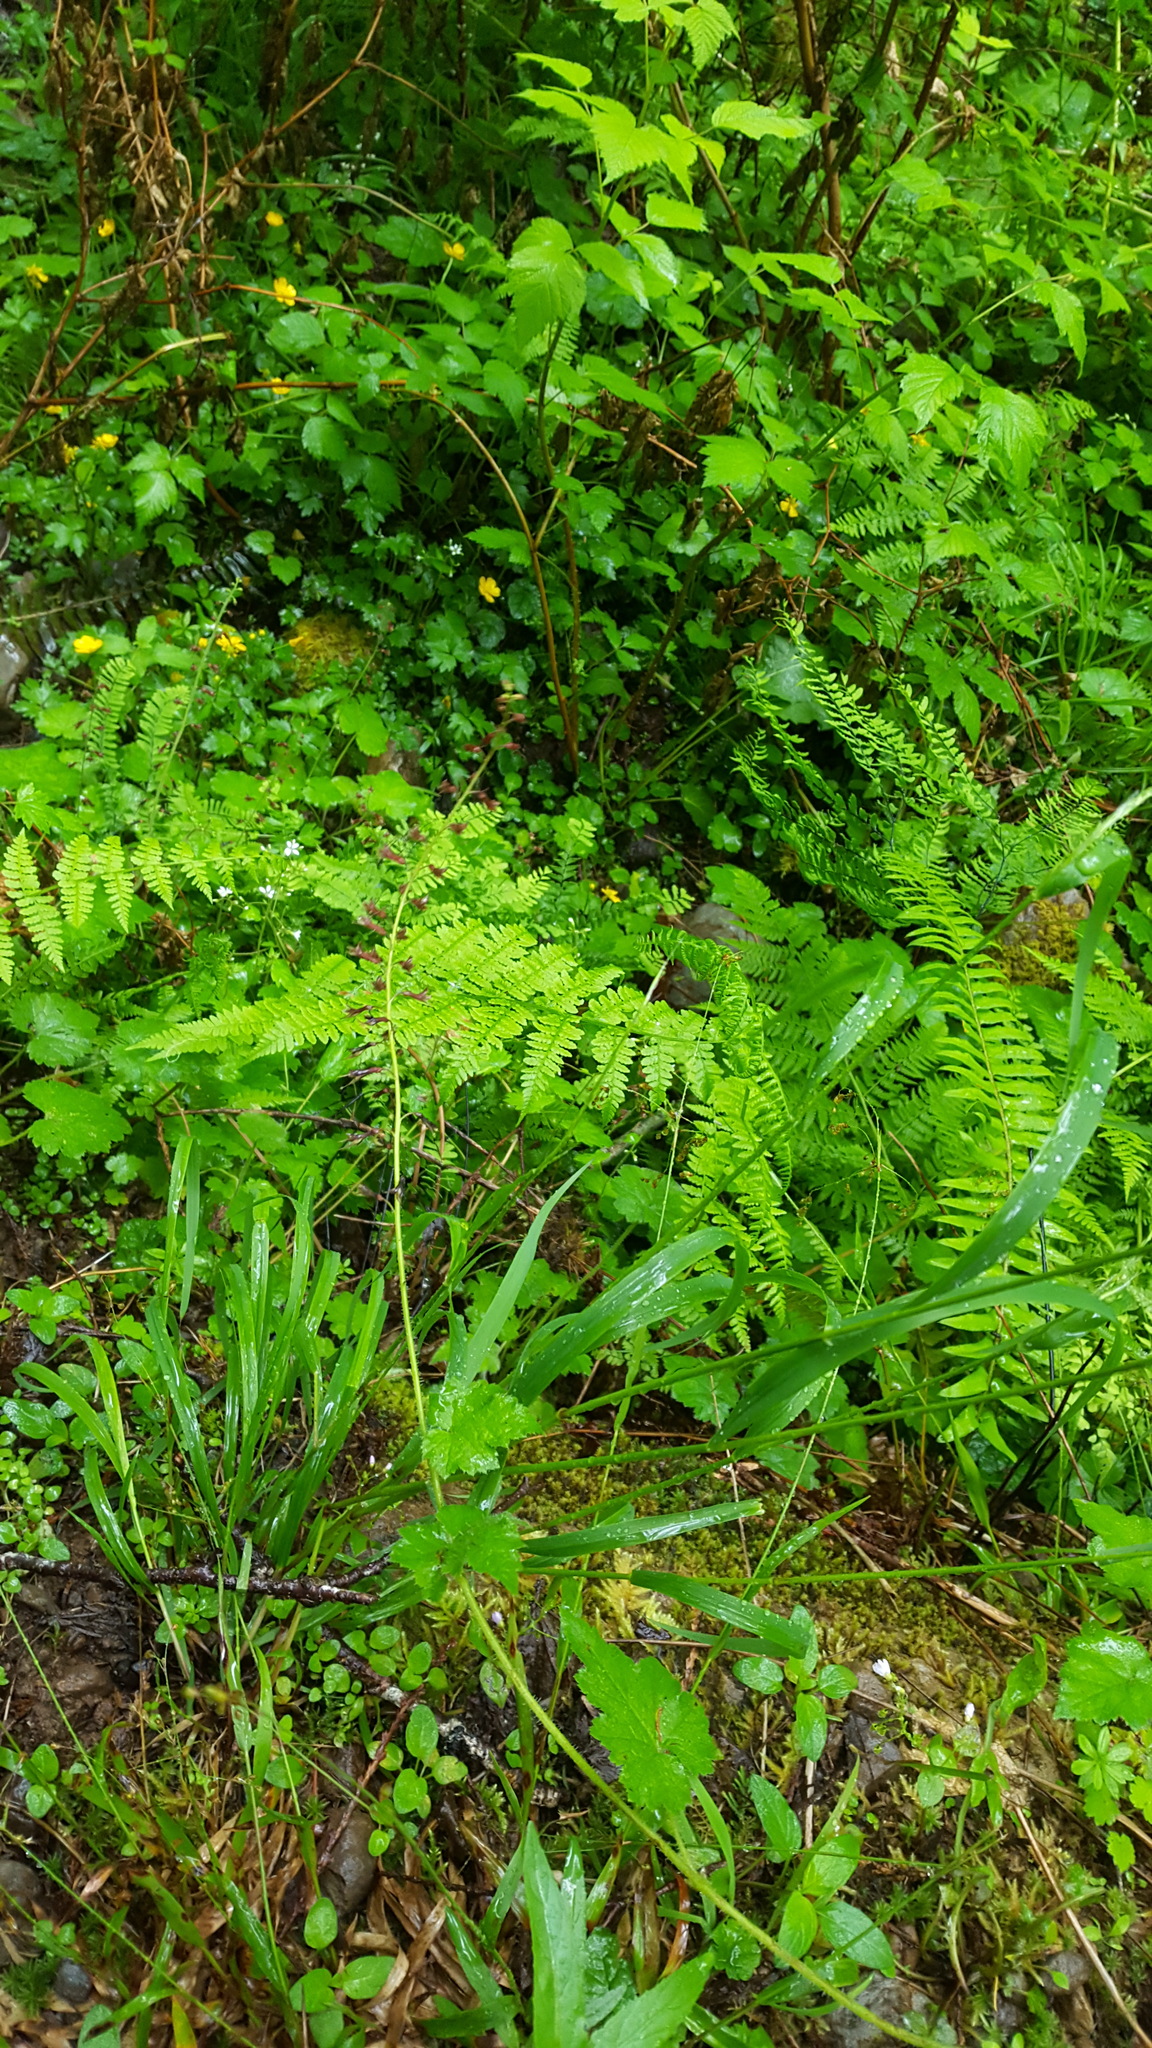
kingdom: Plantae
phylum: Tracheophyta
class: Magnoliopsida
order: Saxifragales
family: Saxifragaceae
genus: Tolmiea
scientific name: Tolmiea menziesii
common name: Pick-a-back-plant
